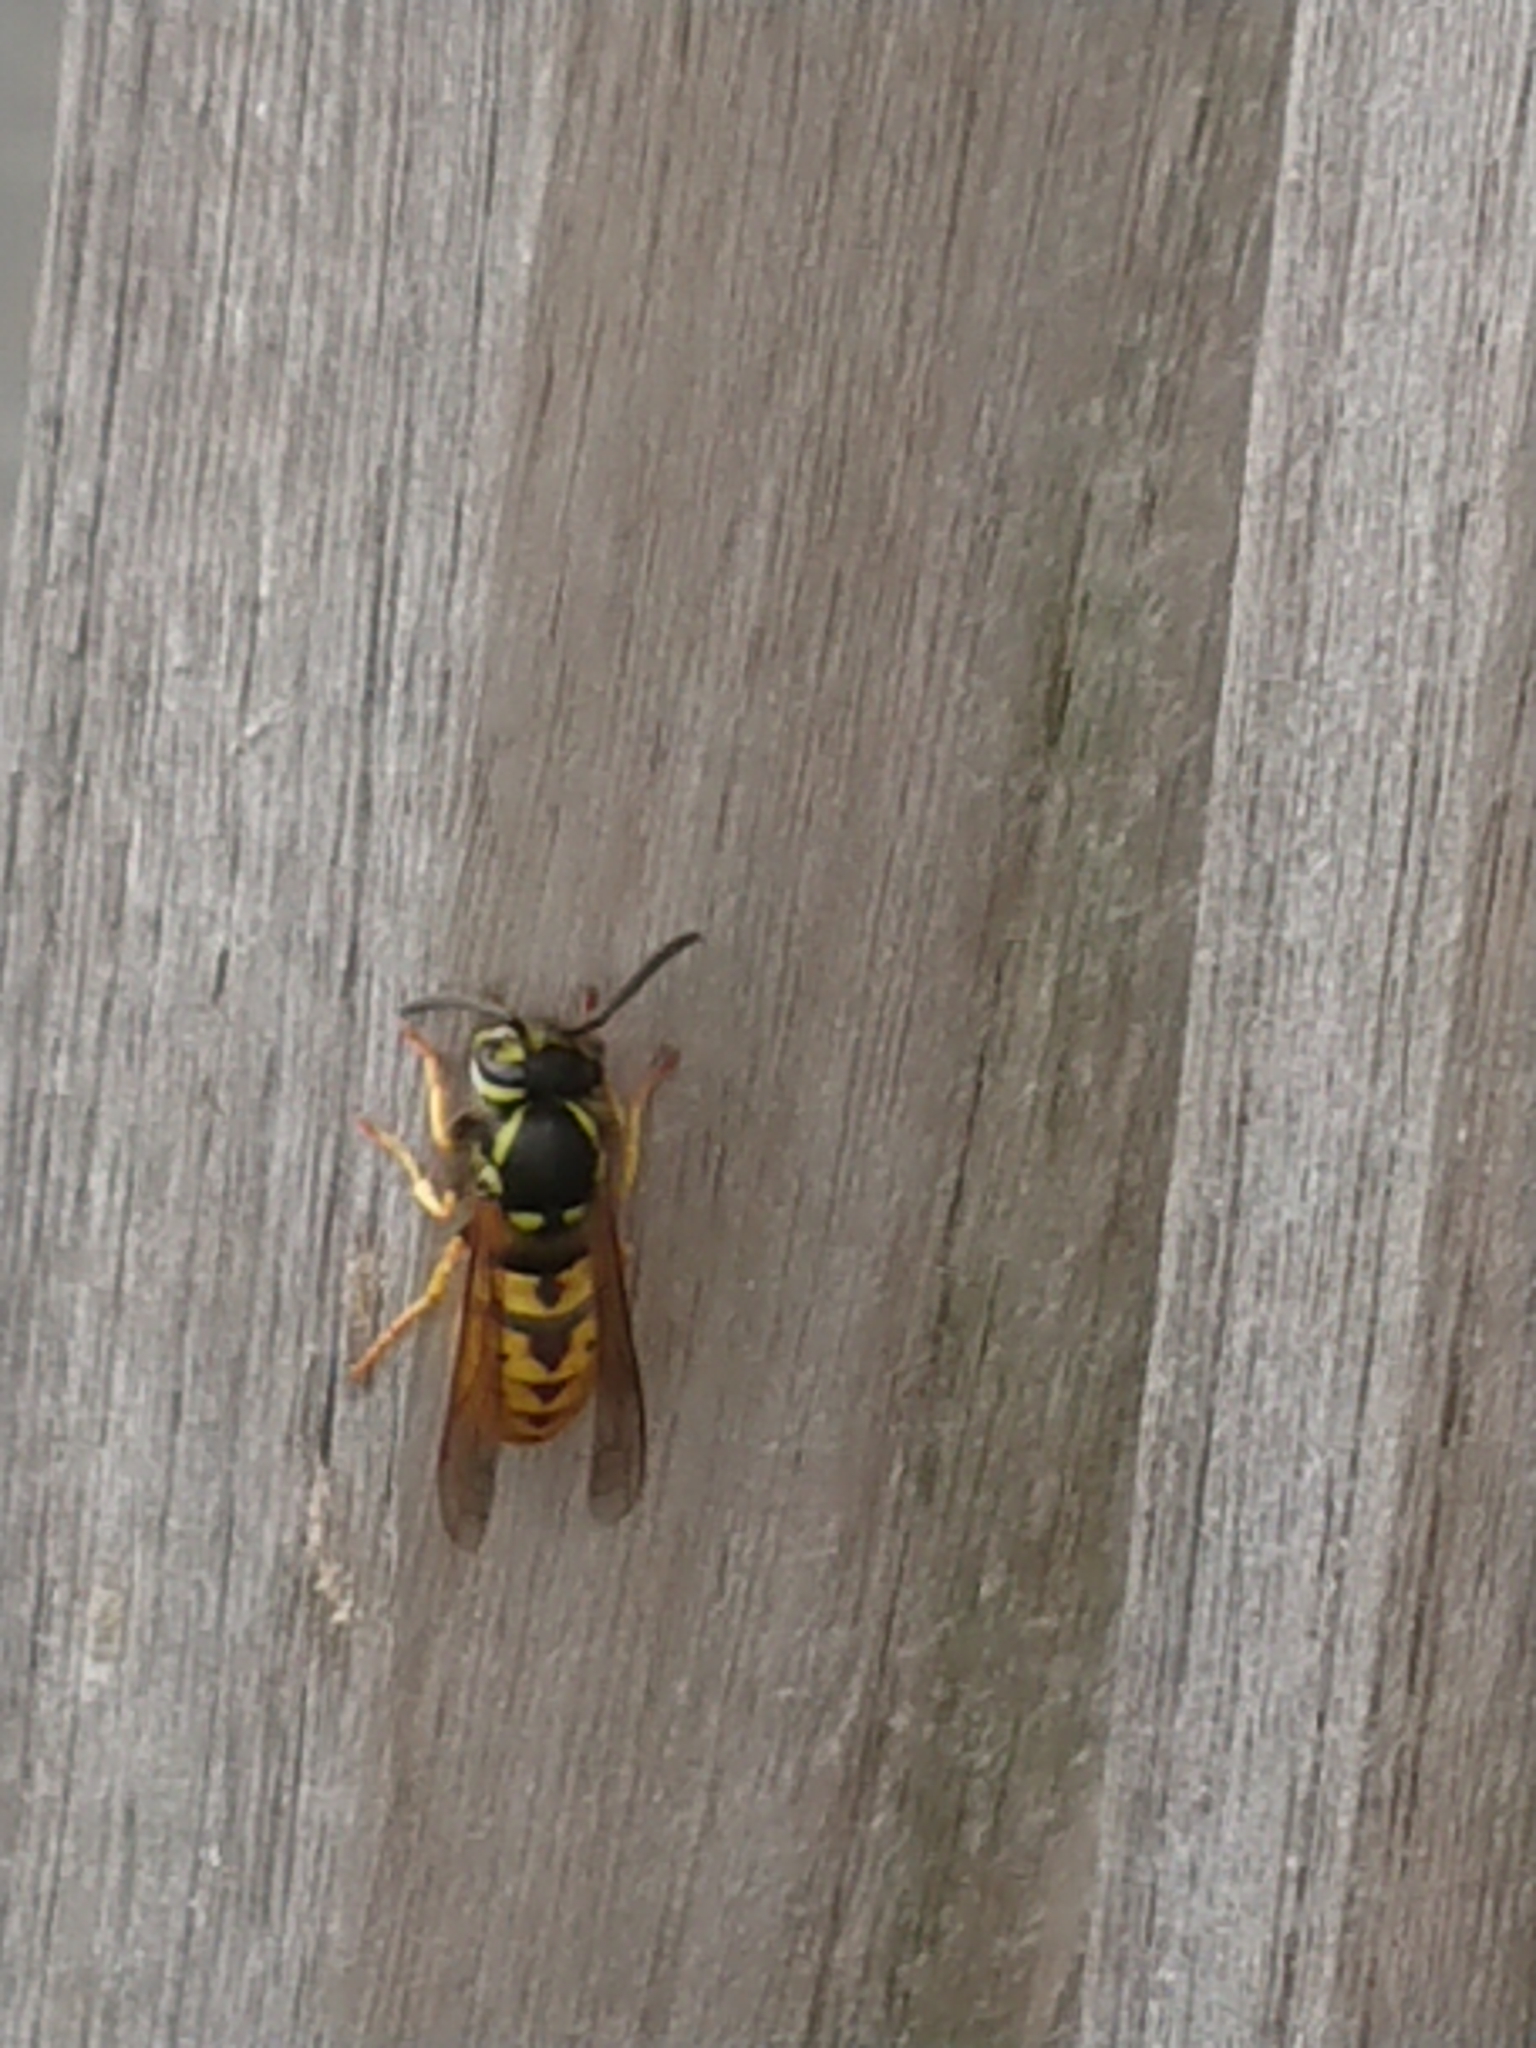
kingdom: Animalia
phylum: Arthropoda
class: Insecta
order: Hymenoptera
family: Vespidae
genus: Vespula
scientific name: Vespula germanica
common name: German wasp
